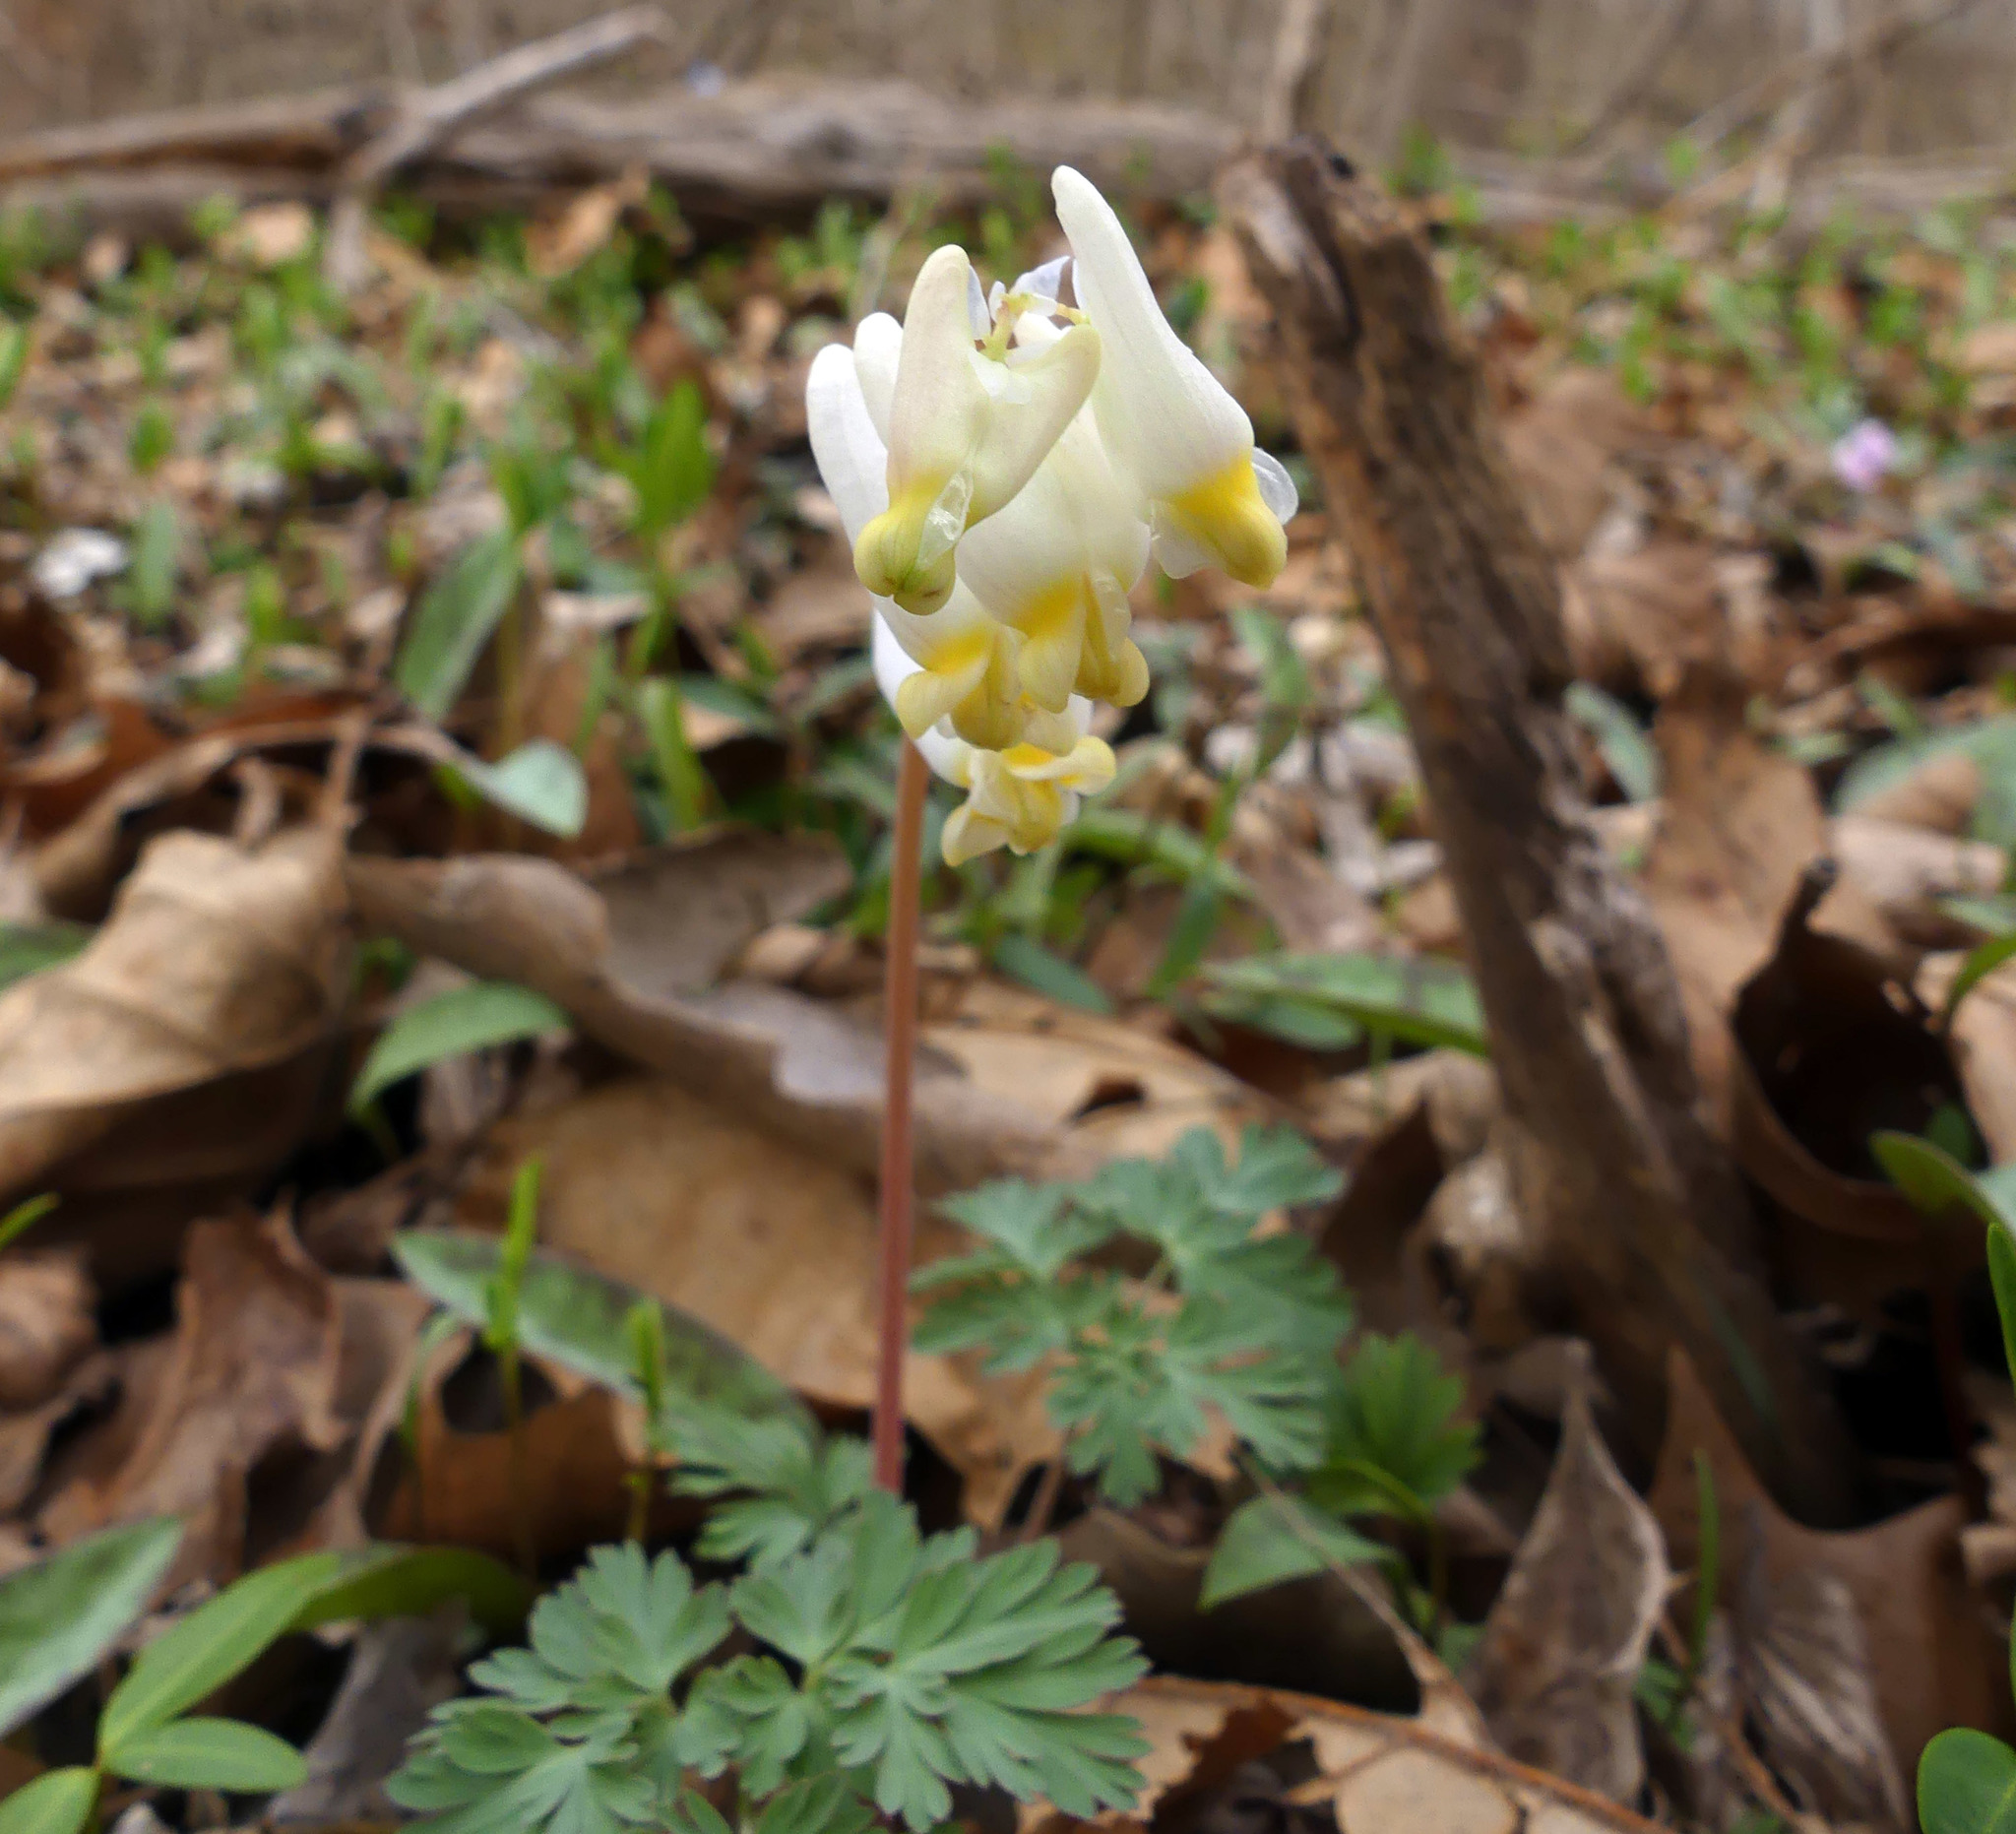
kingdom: Plantae
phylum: Tracheophyta
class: Magnoliopsida
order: Ranunculales
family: Papaveraceae
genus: Dicentra
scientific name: Dicentra cucullaria
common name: Dutchman's breeches
